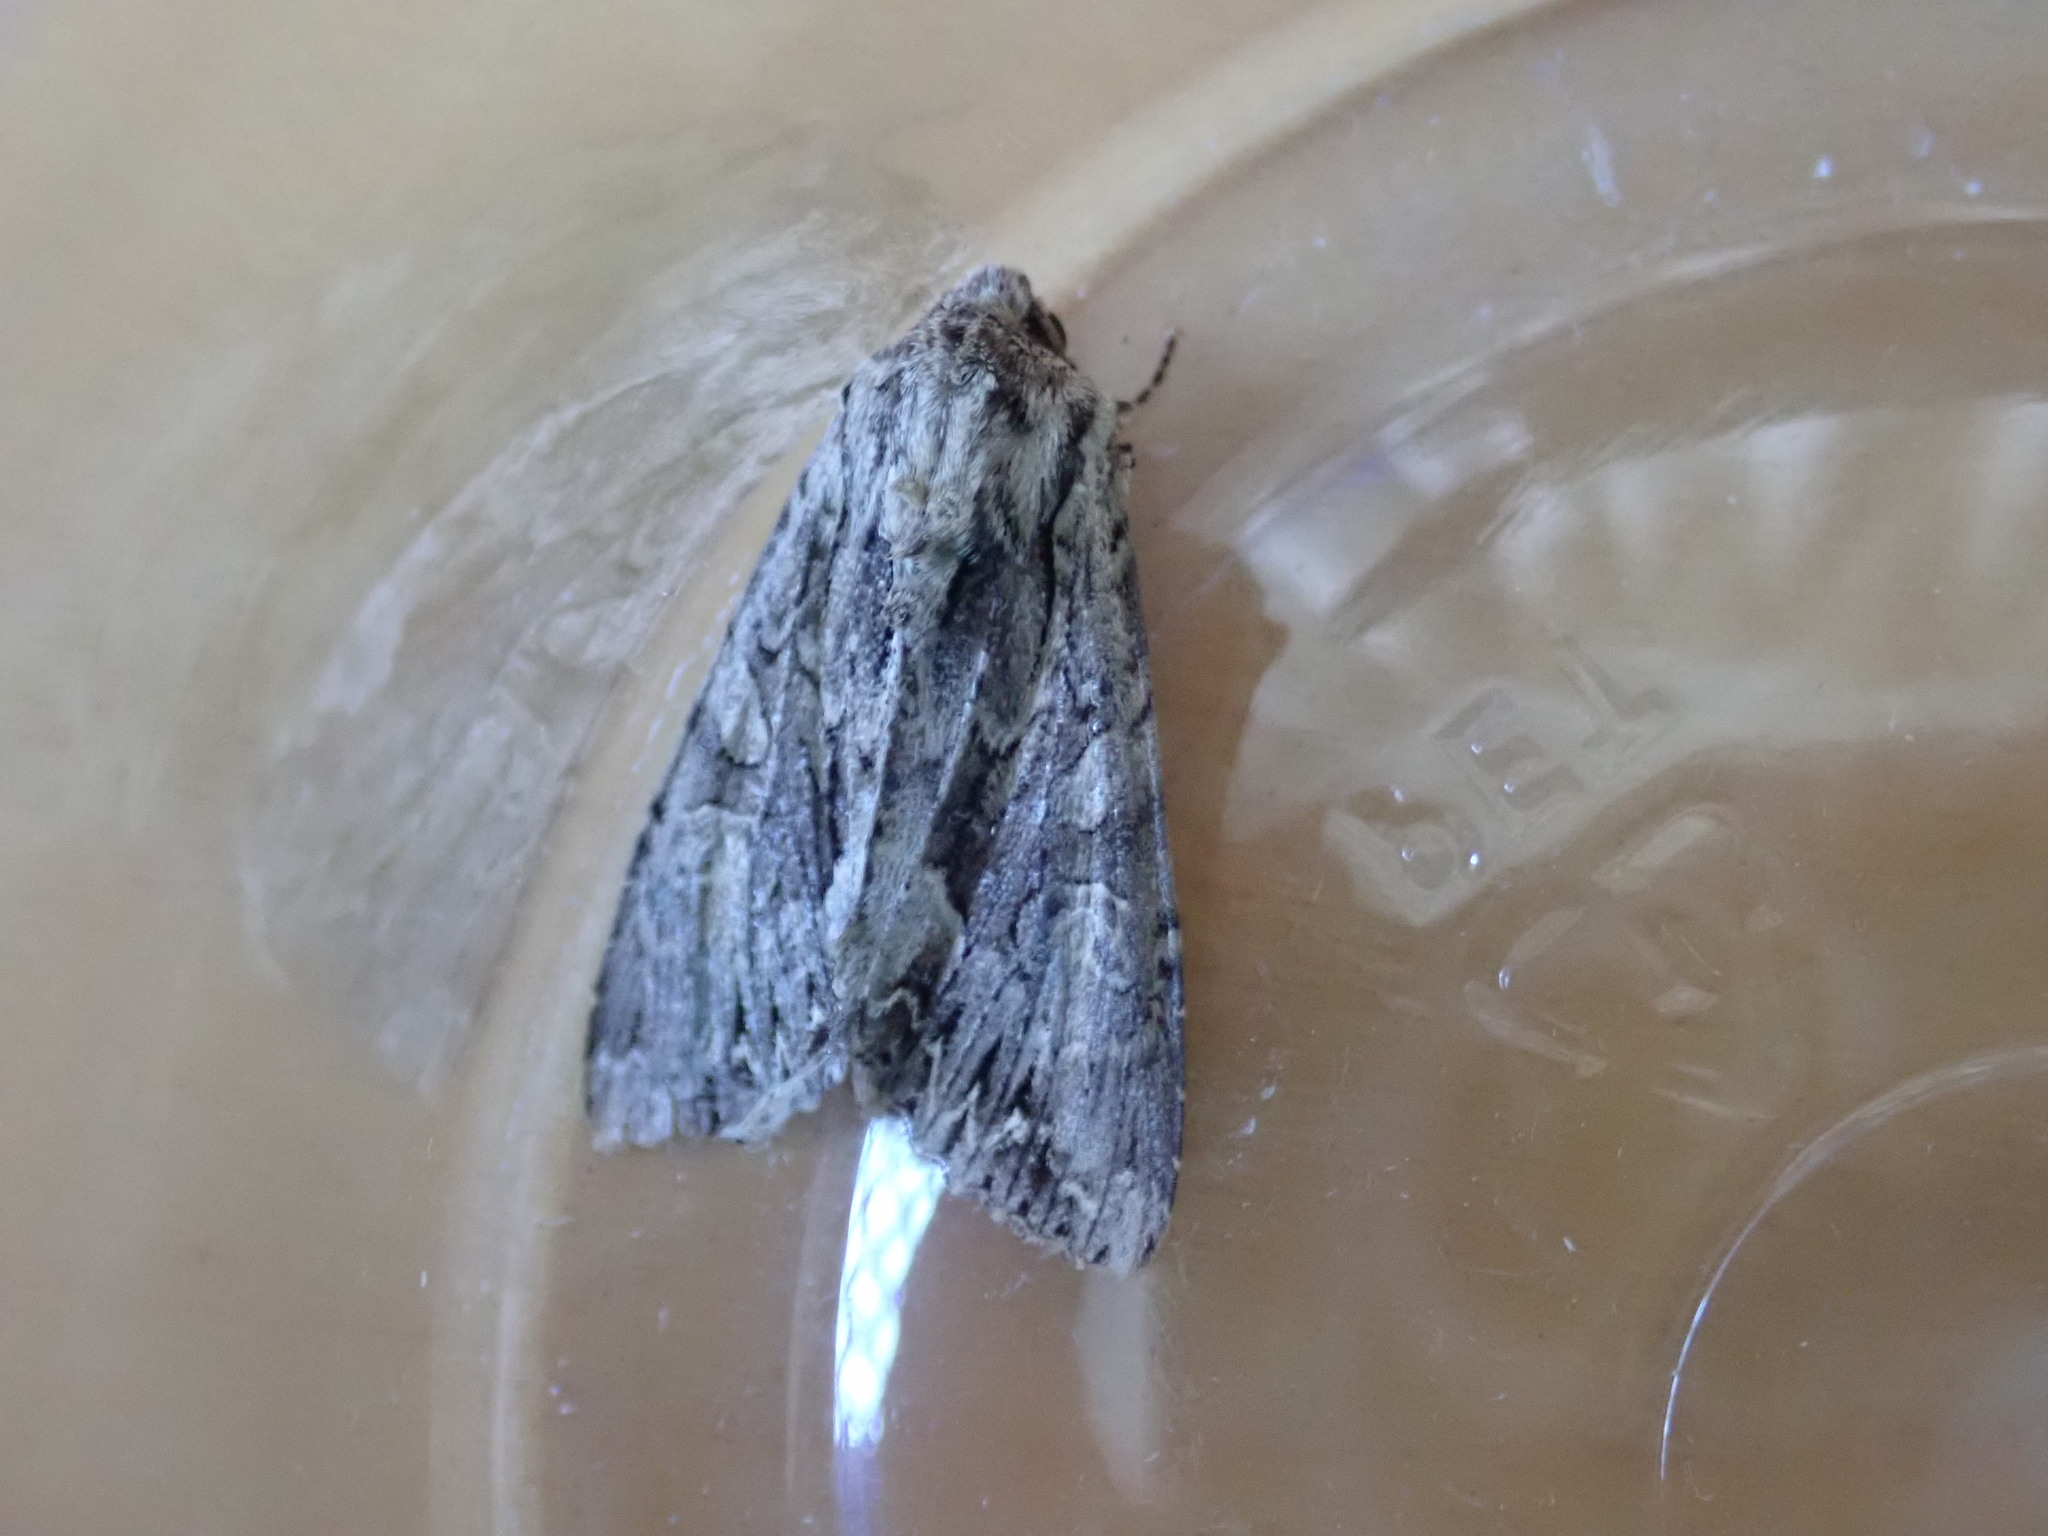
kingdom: Animalia
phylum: Arthropoda
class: Insecta
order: Lepidoptera
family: Noctuidae
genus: Apamea
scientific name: Apamea monoglypha
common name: Dark arches
